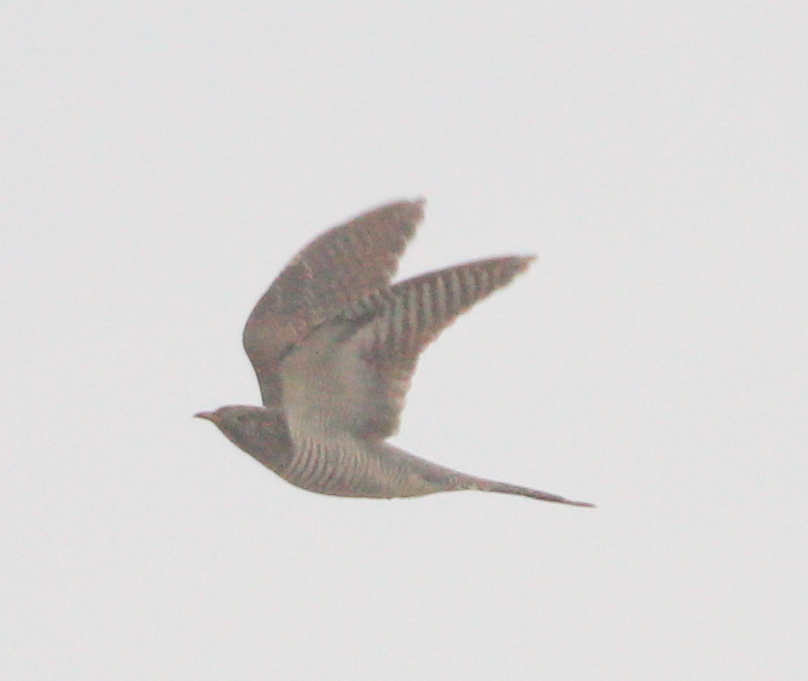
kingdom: Animalia
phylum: Chordata
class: Aves
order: Cuculiformes
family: Cuculidae
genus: Cuculus
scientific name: Cuculus canorus
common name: Common cuckoo
